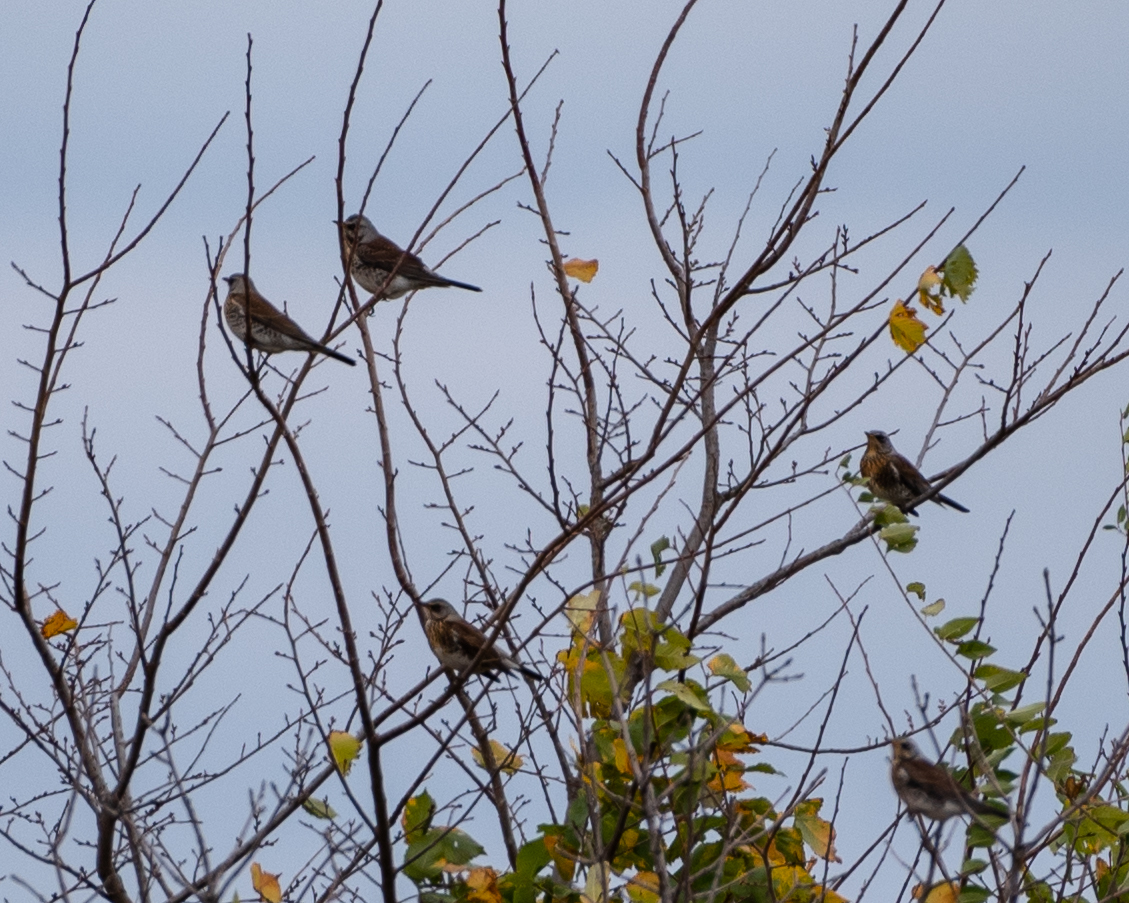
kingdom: Animalia
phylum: Chordata
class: Aves
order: Passeriformes
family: Turdidae
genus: Turdus
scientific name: Turdus pilaris
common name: Fieldfare
